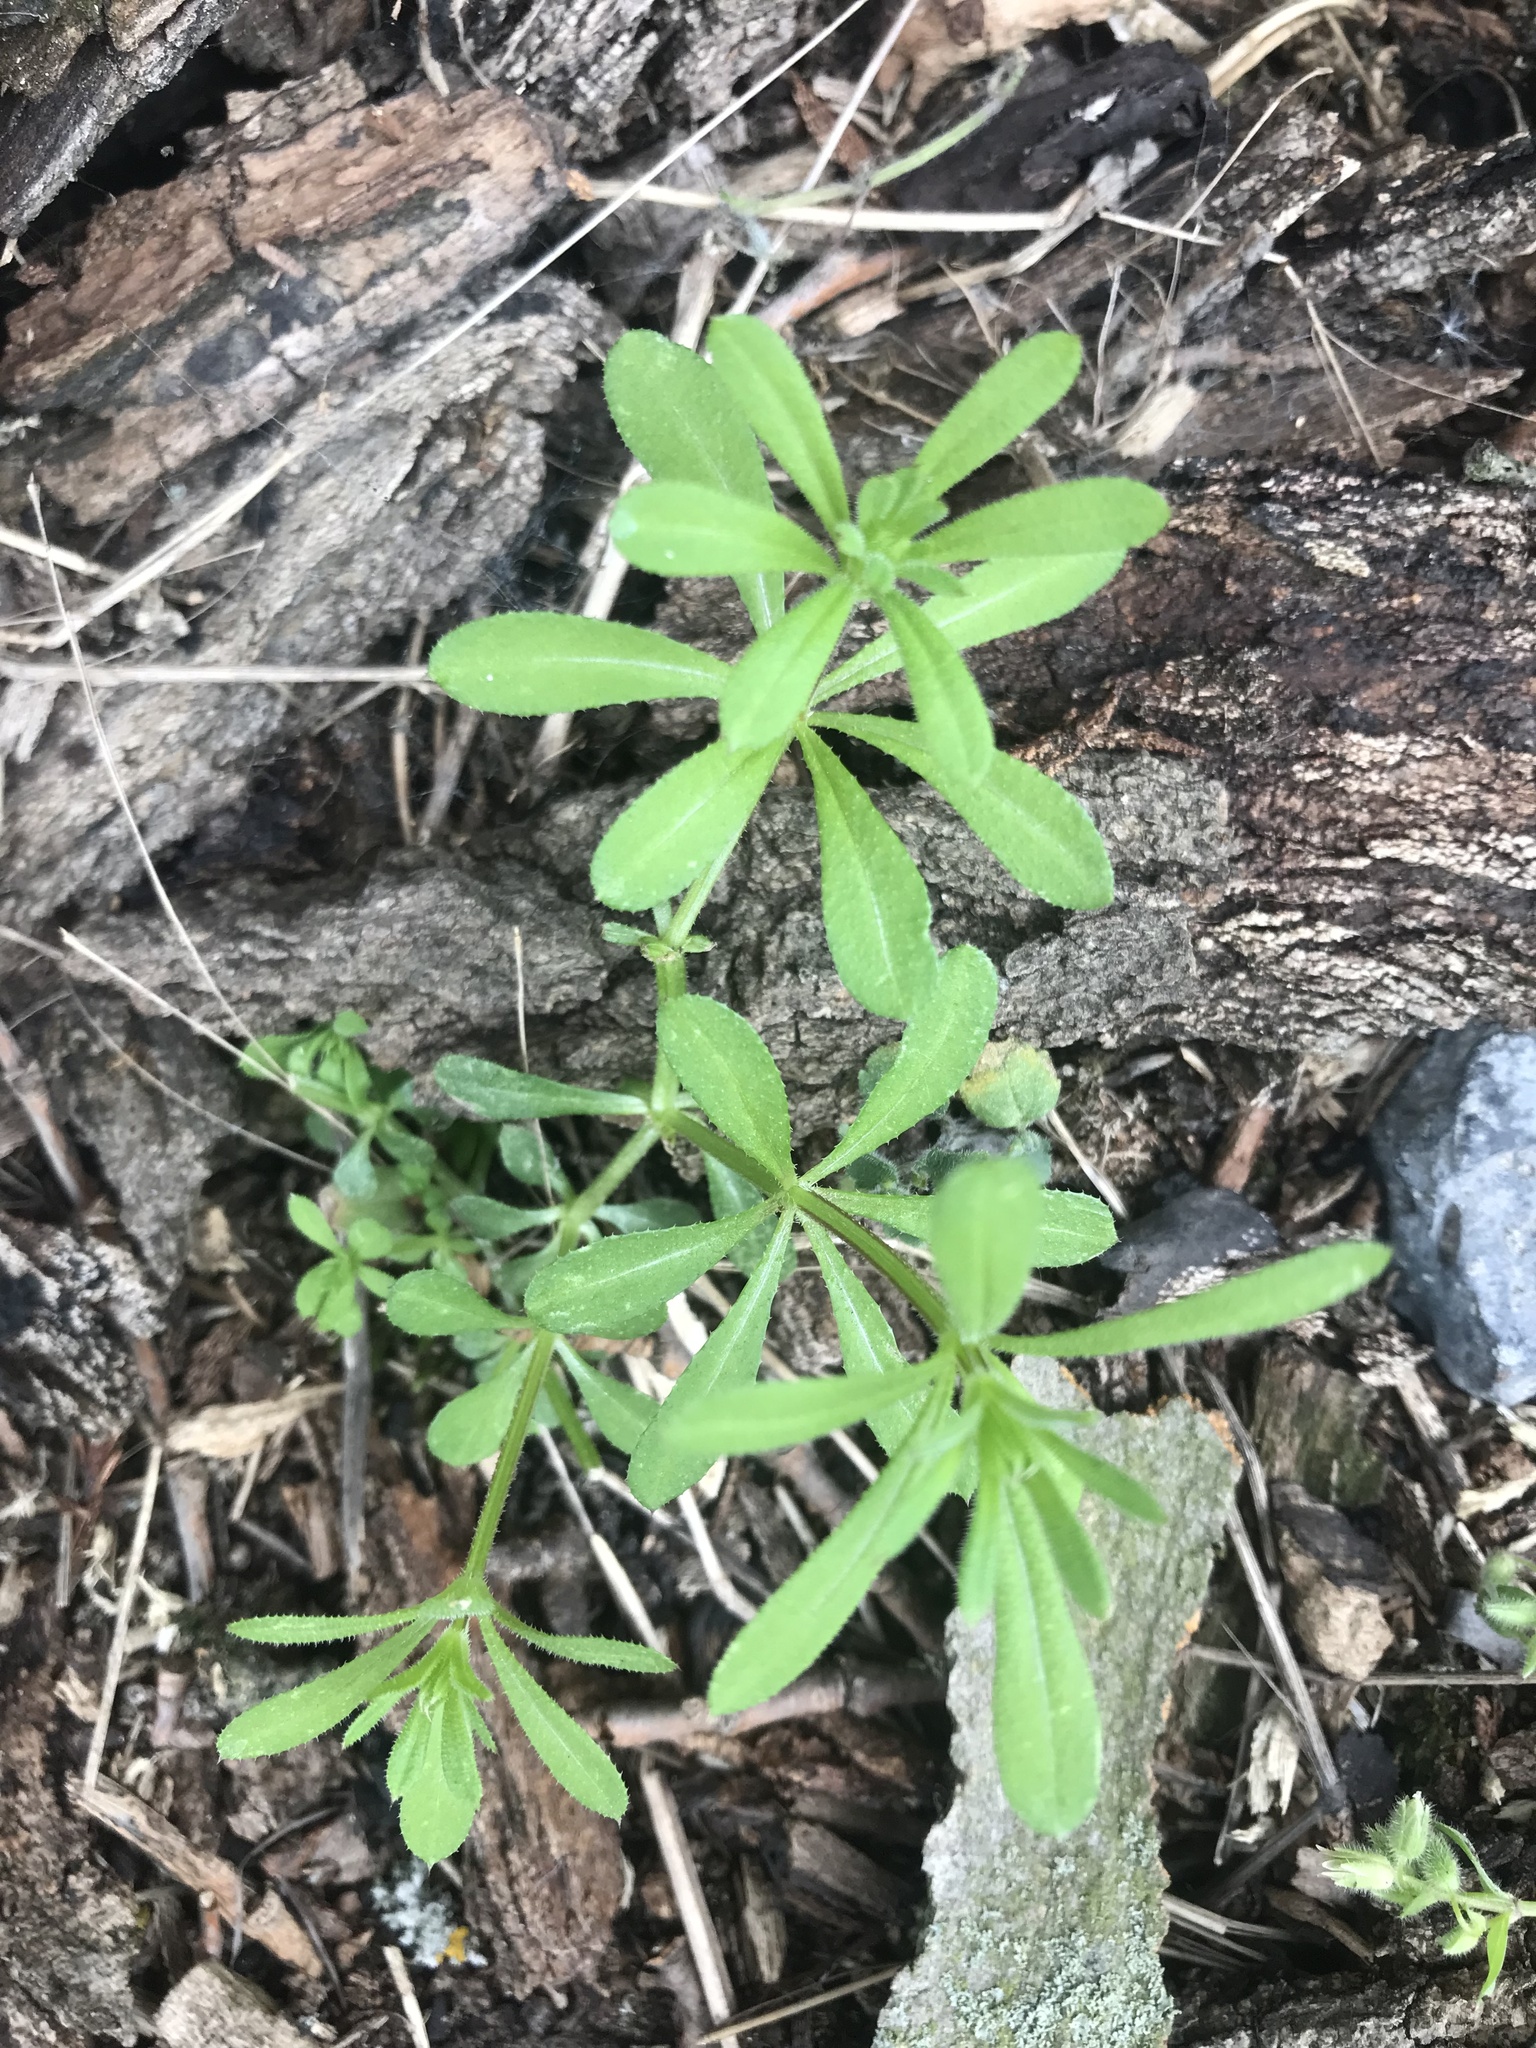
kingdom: Plantae
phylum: Tracheophyta
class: Magnoliopsida
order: Gentianales
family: Rubiaceae
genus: Galium
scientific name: Galium aparine
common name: Cleavers
